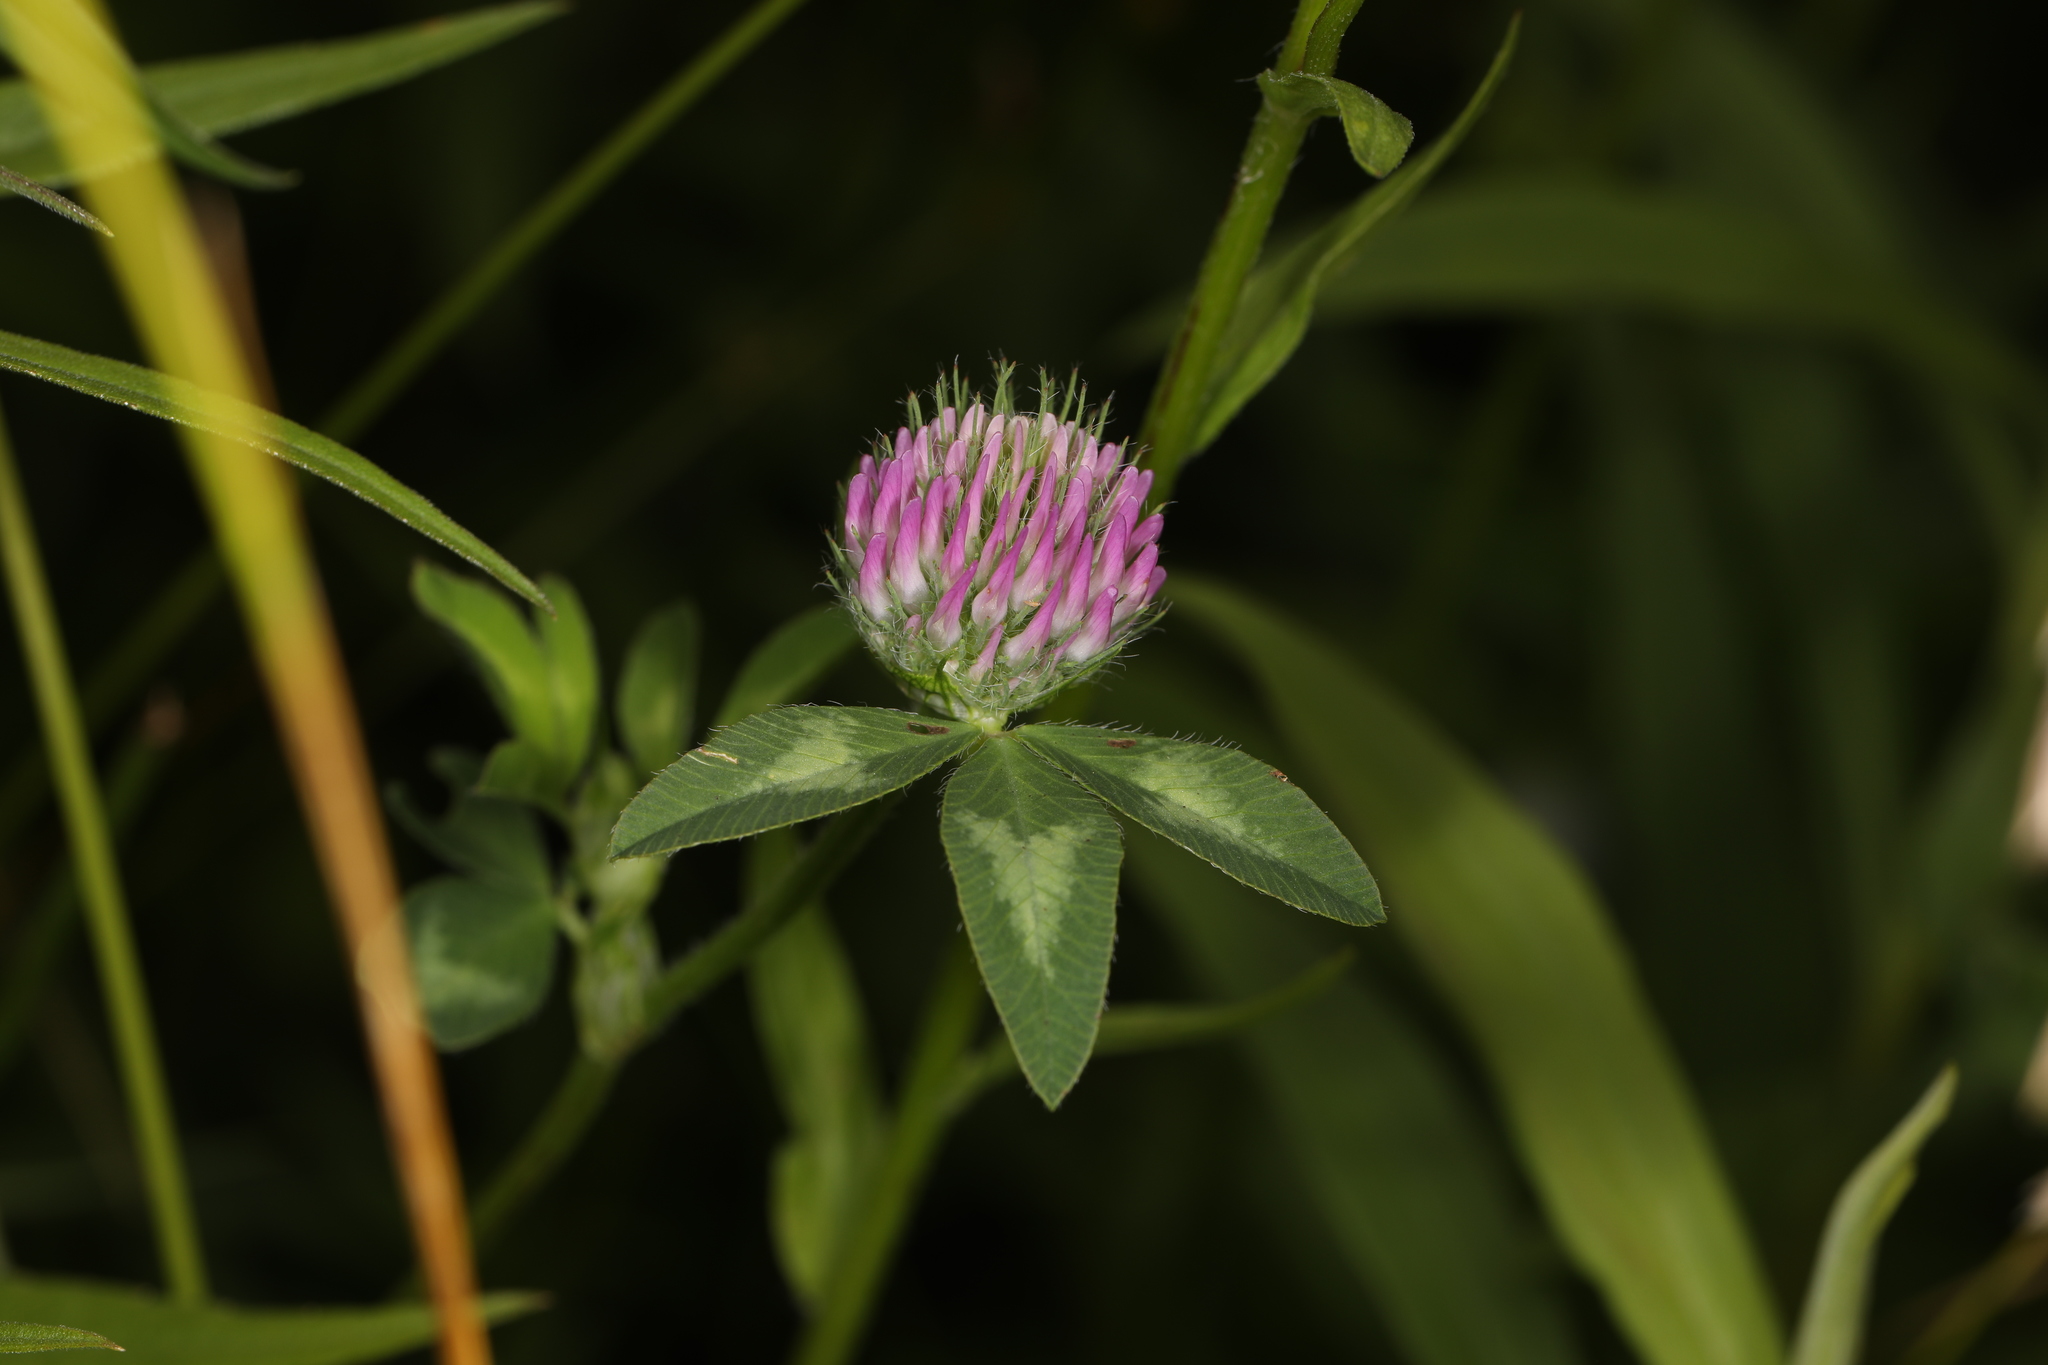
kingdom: Plantae
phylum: Tracheophyta
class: Magnoliopsida
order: Fabales
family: Fabaceae
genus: Trifolium
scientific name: Trifolium pratense
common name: Red clover
